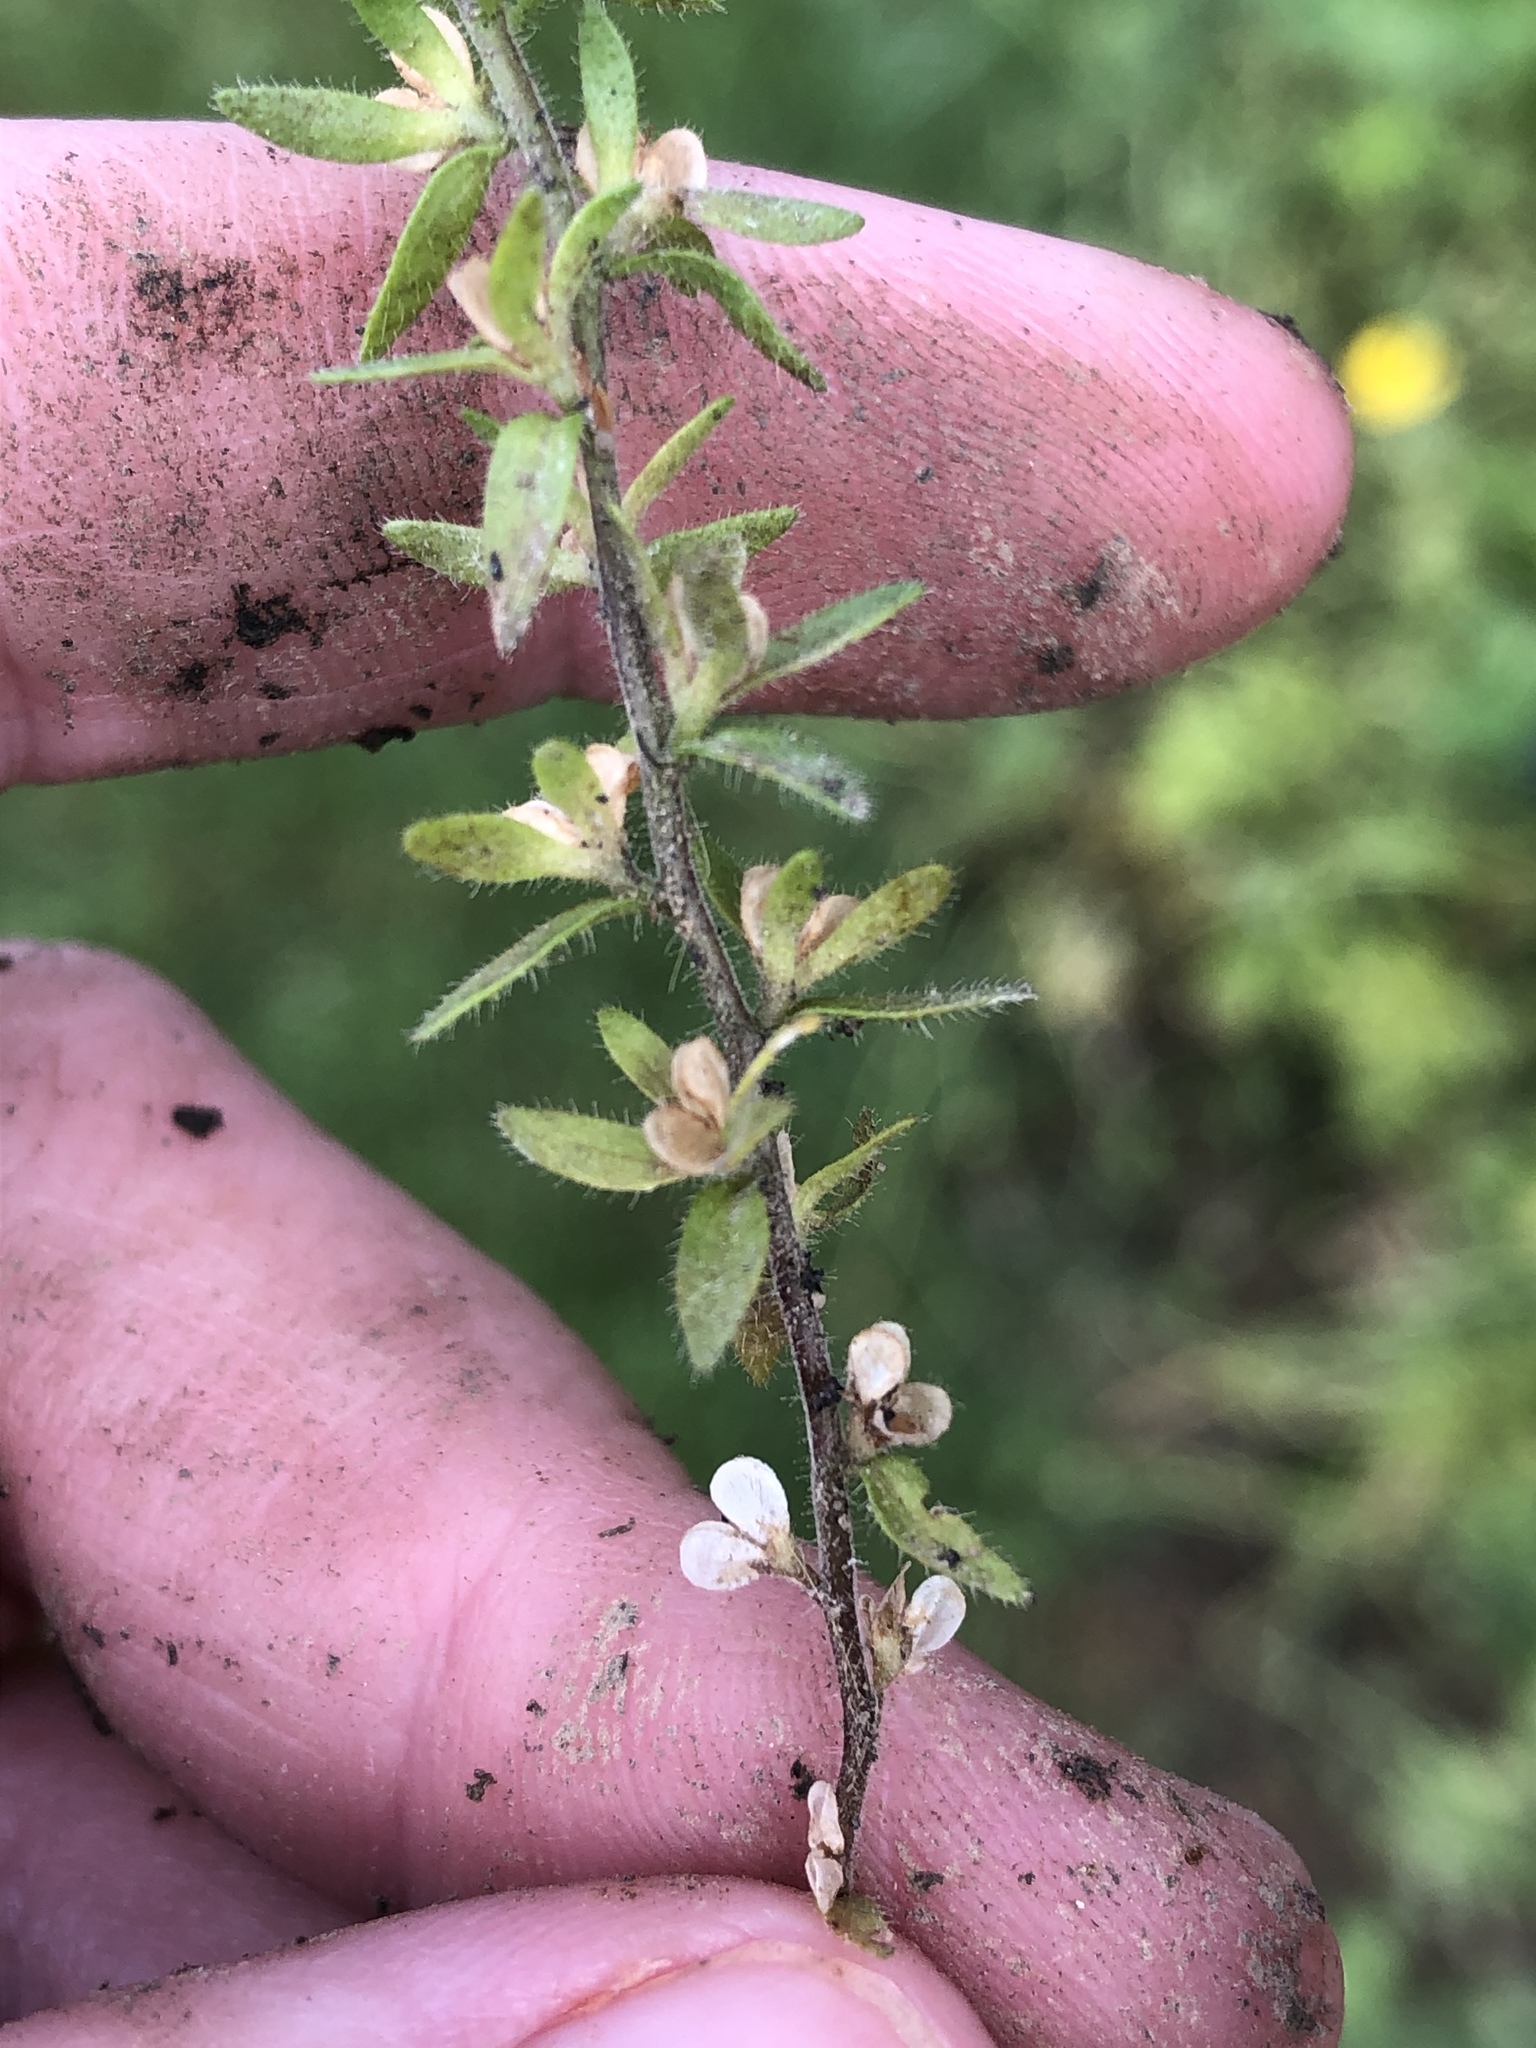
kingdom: Plantae
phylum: Tracheophyta
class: Magnoliopsida
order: Lamiales
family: Plantaginaceae
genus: Veronica
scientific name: Veronica arvensis
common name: Corn speedwell
